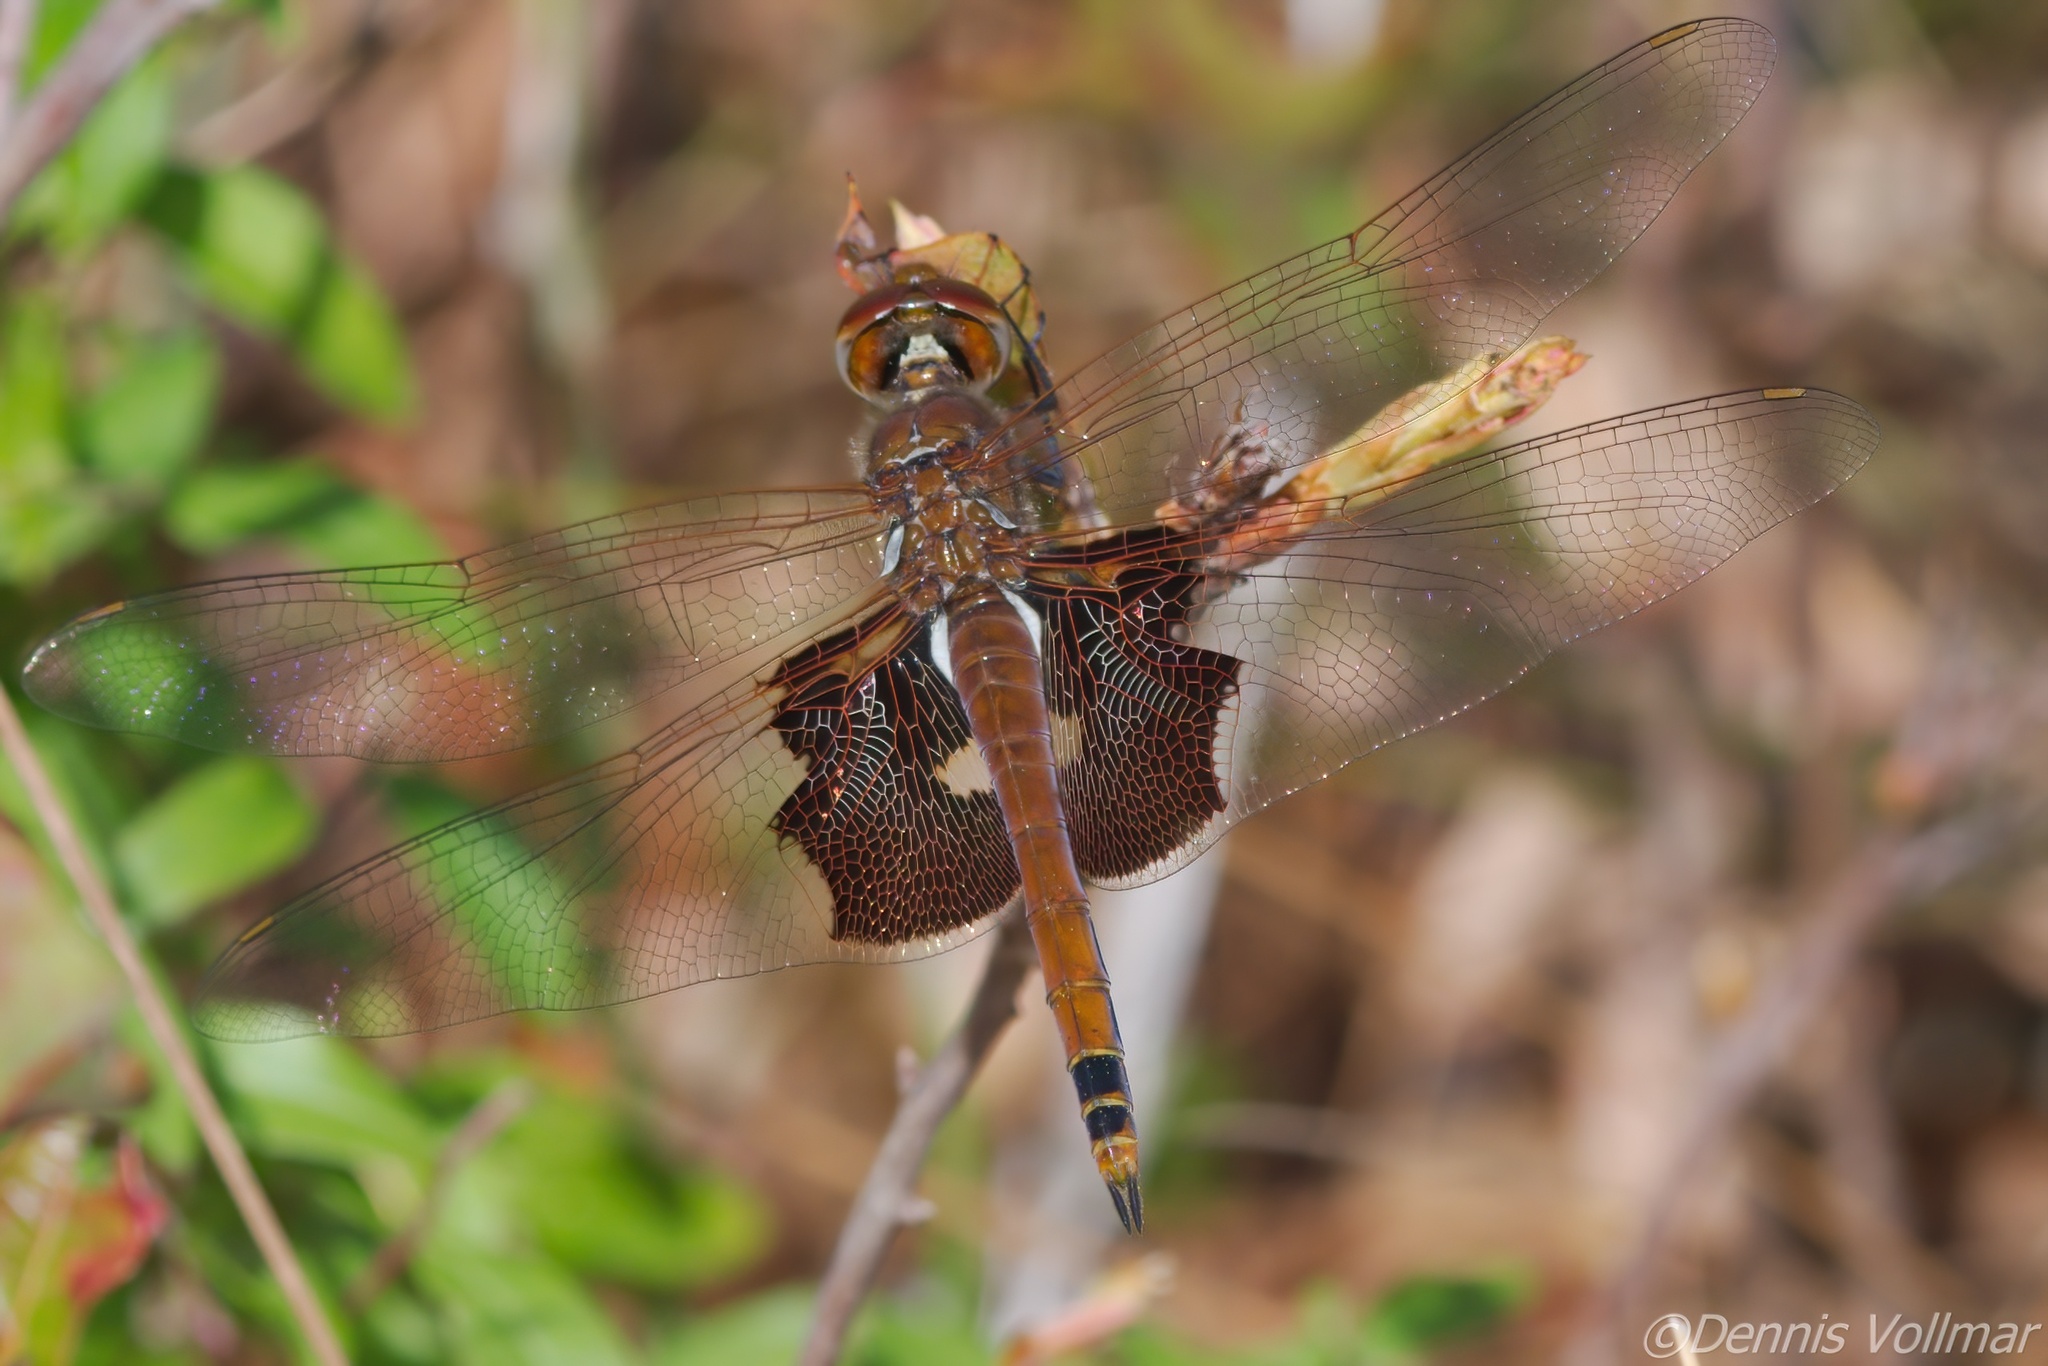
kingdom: Animalia
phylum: Arthropoda
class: Insecta
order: Odonata
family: Libellulidae
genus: Tramea
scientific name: Tramea carolina
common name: Carolina saddlebags
